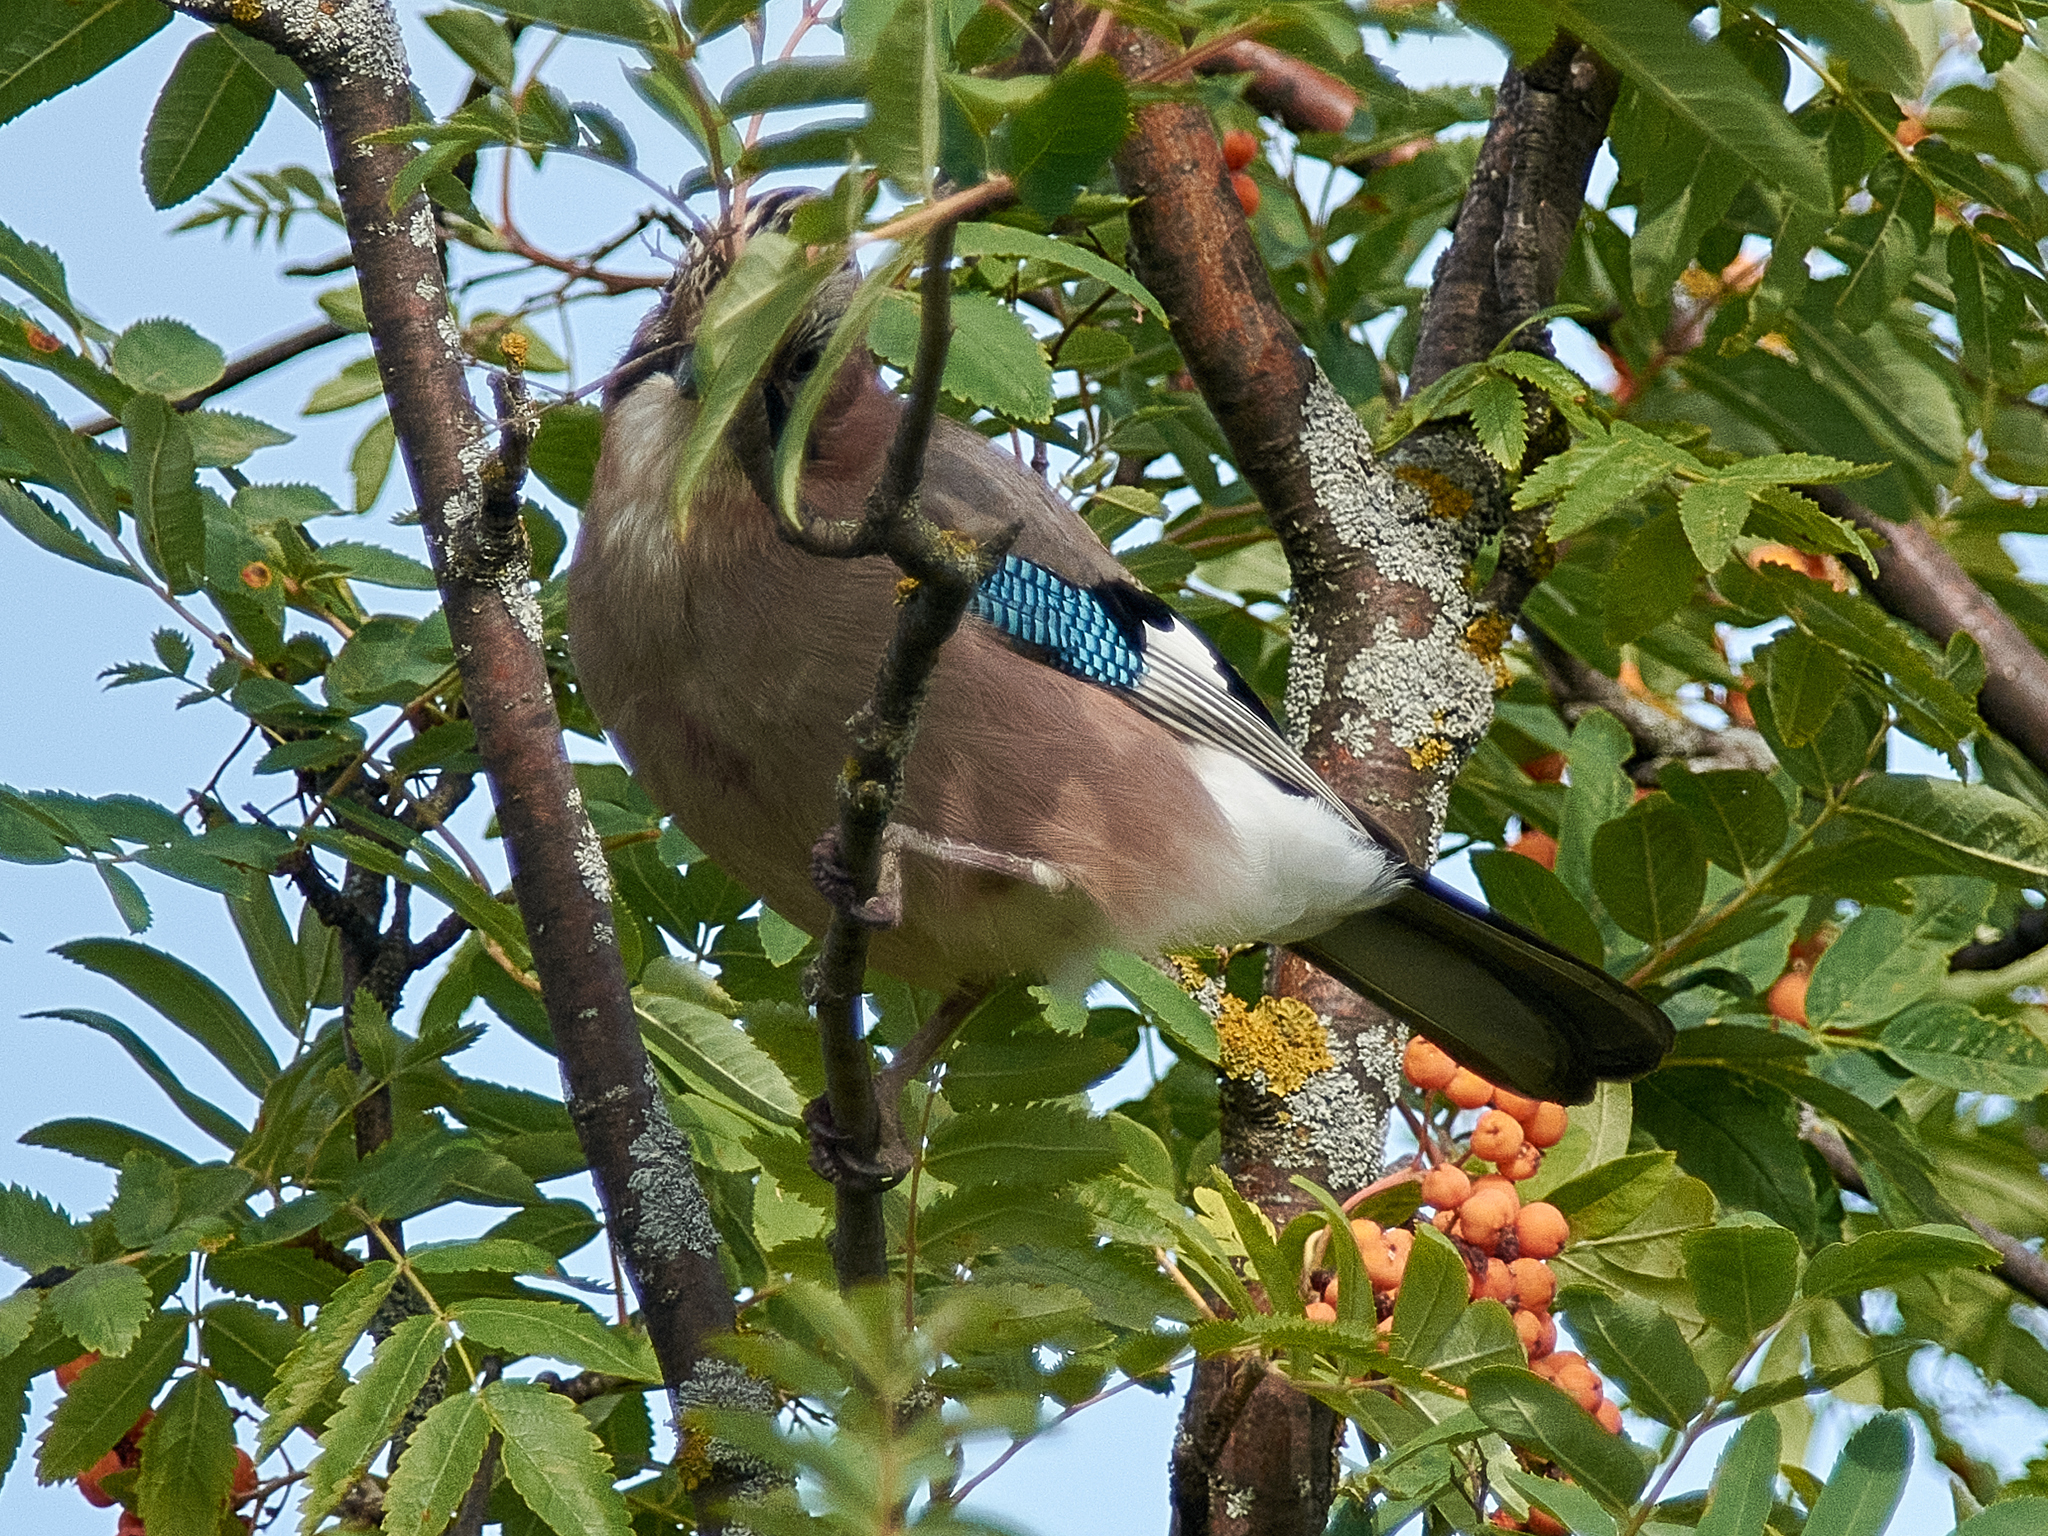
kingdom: Animalia
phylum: Chordata
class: Aves
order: Passeriformes
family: Corvidae
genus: Garrulus
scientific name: Garrulus glandarius
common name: Eurasian jay
